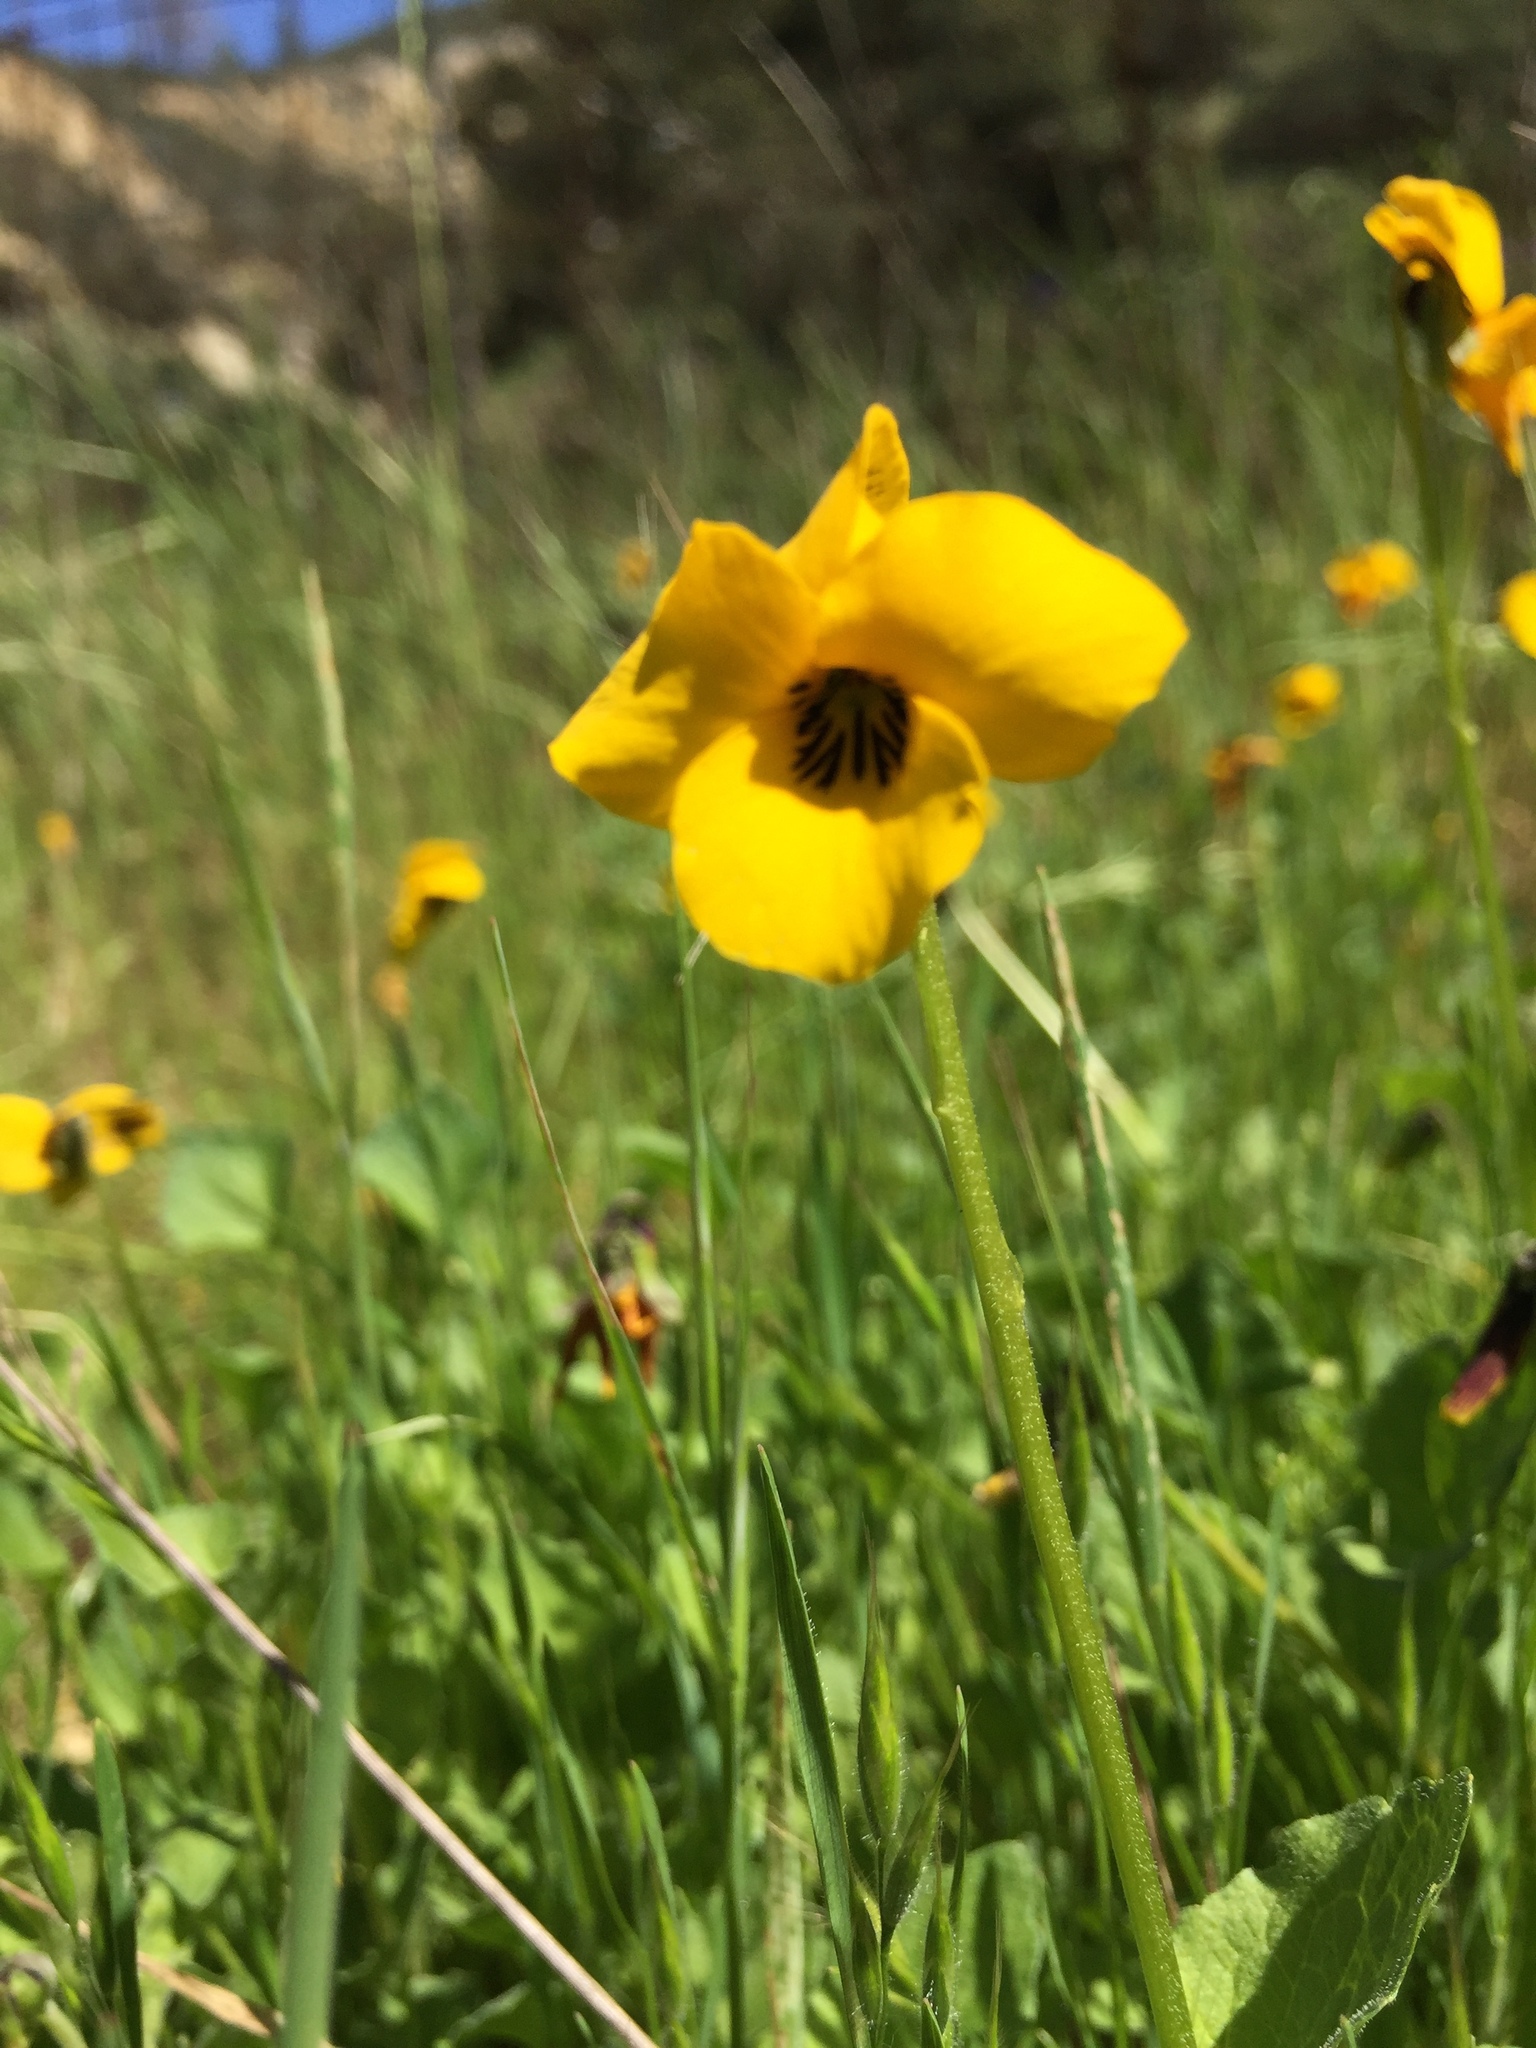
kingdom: Plantae
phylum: Tracheophyta
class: Magnoliopsida
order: Malpighiales
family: Violaceae
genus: Viola
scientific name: Viola pedunculata
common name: California golden violet
